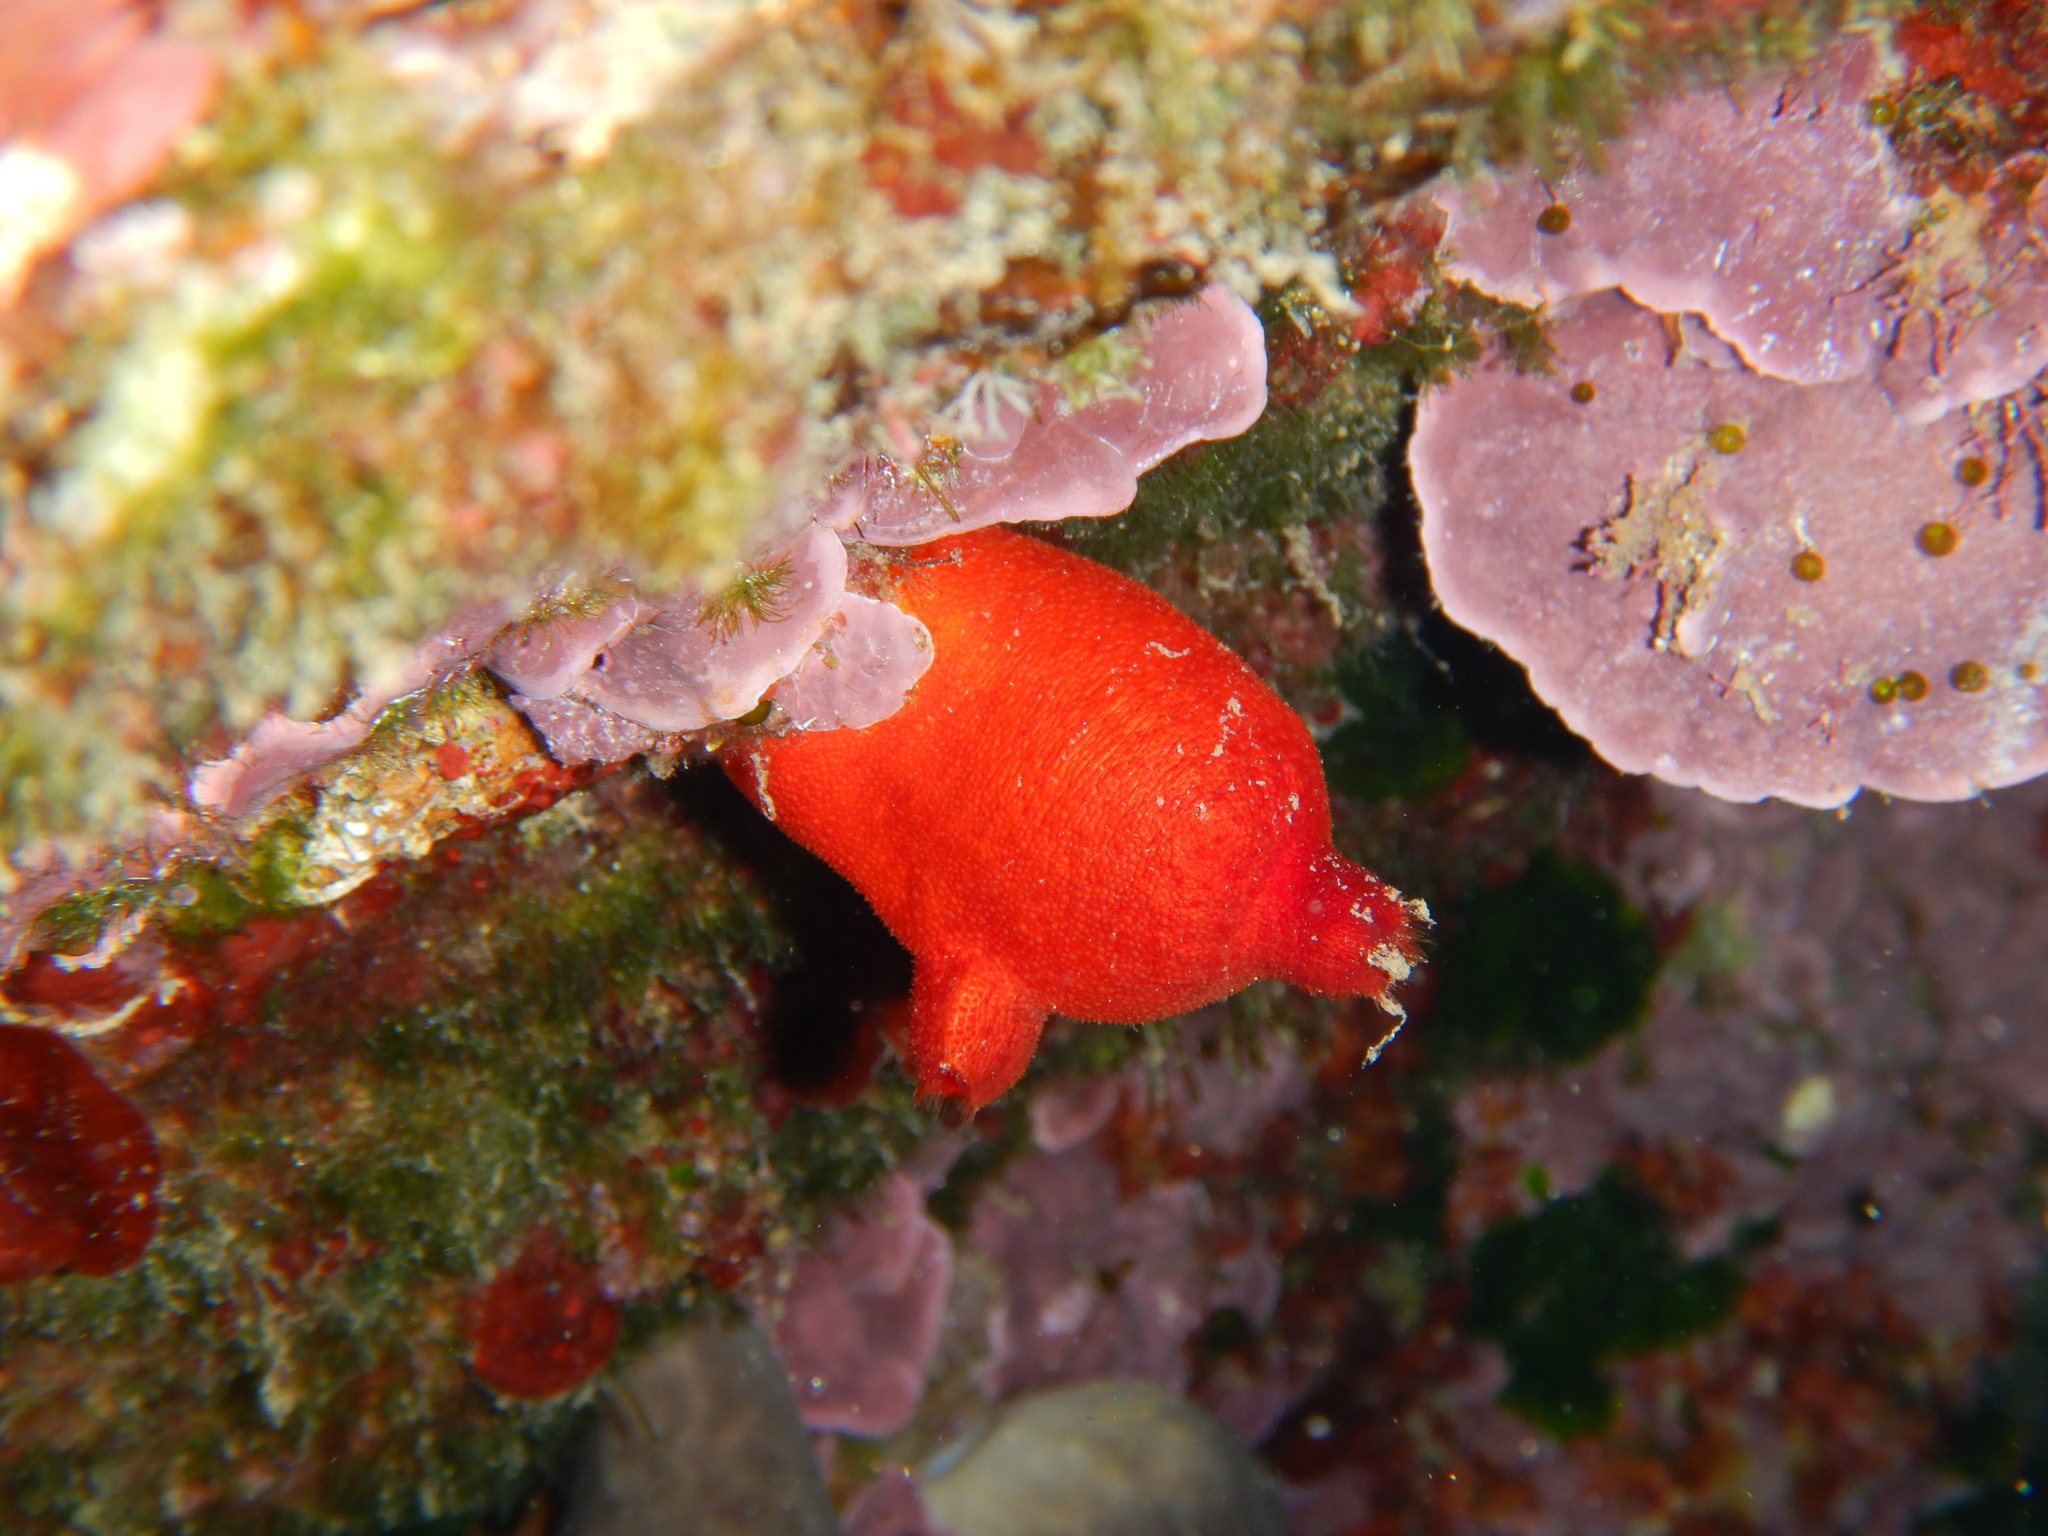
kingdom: Animalia
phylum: Chordata
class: Ascidiacea
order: Stolidobranchia
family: Pyuridae
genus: Halocynthia
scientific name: Halocynthia papillosa
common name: Red sea-squirt
